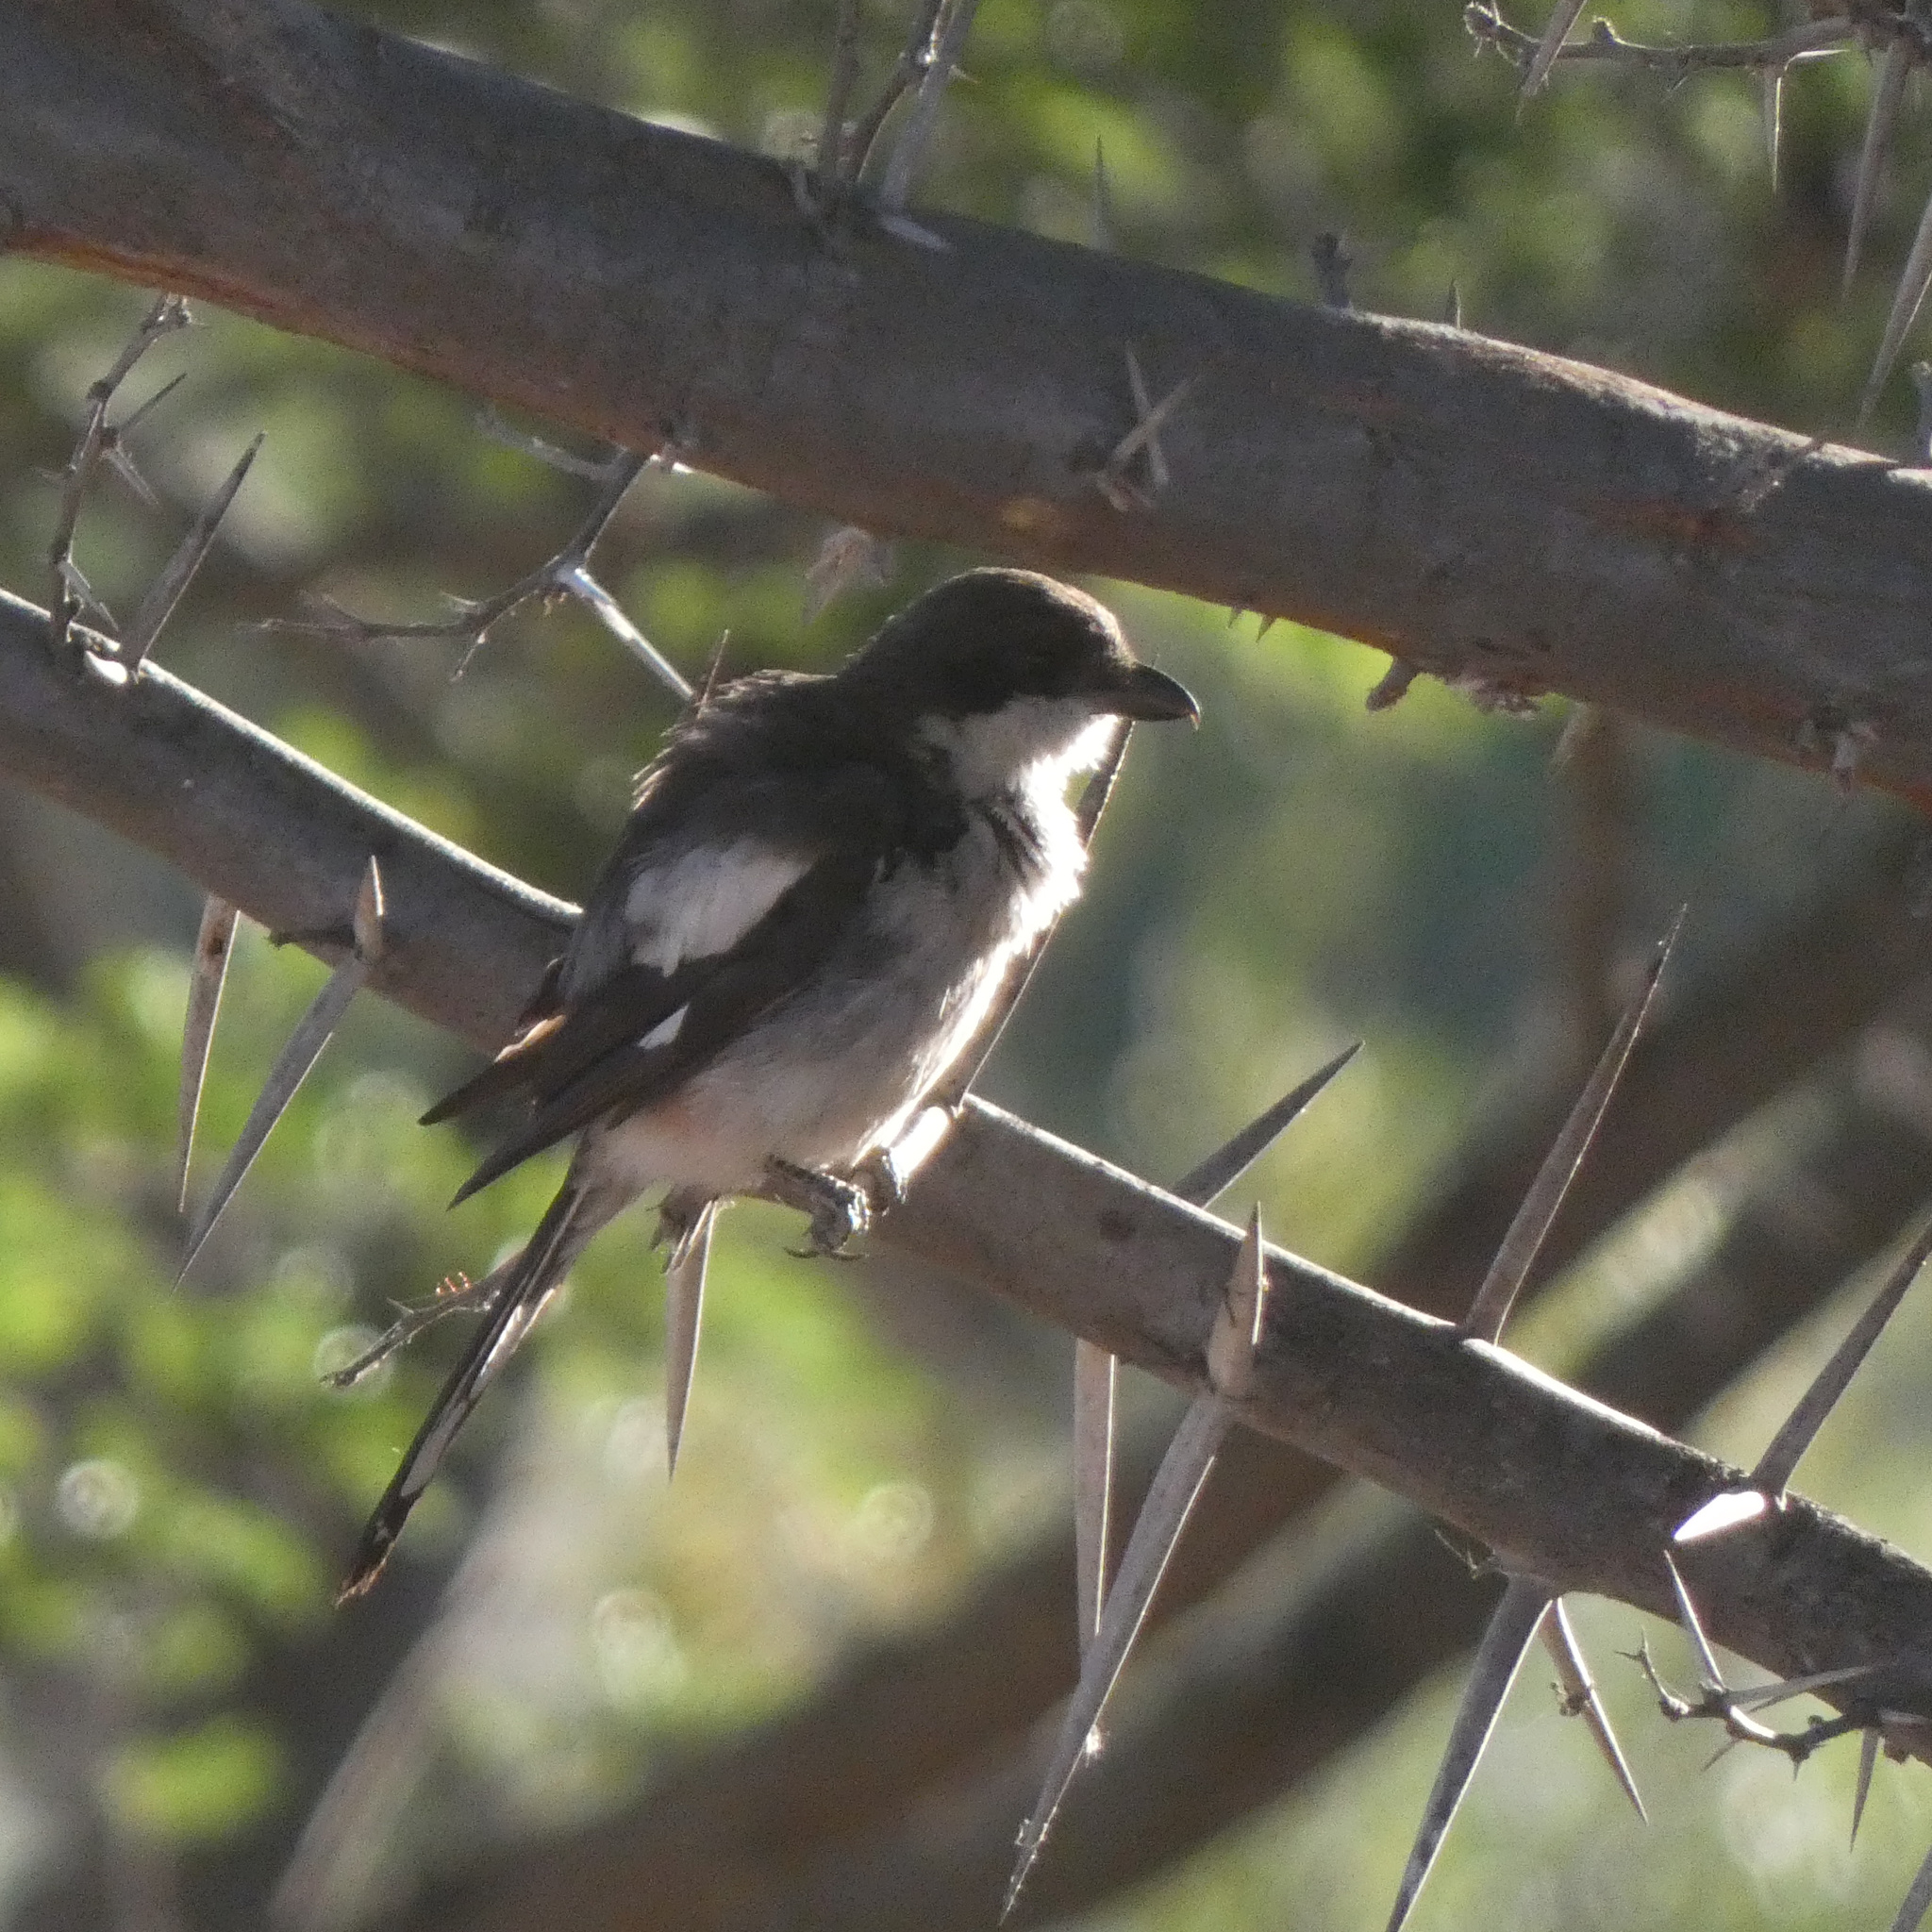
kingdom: Animalia
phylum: Chordata
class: Aves
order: Passeriformes
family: Laniidae
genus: Lanius
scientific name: Lanius collaris
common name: Southern fiscal
